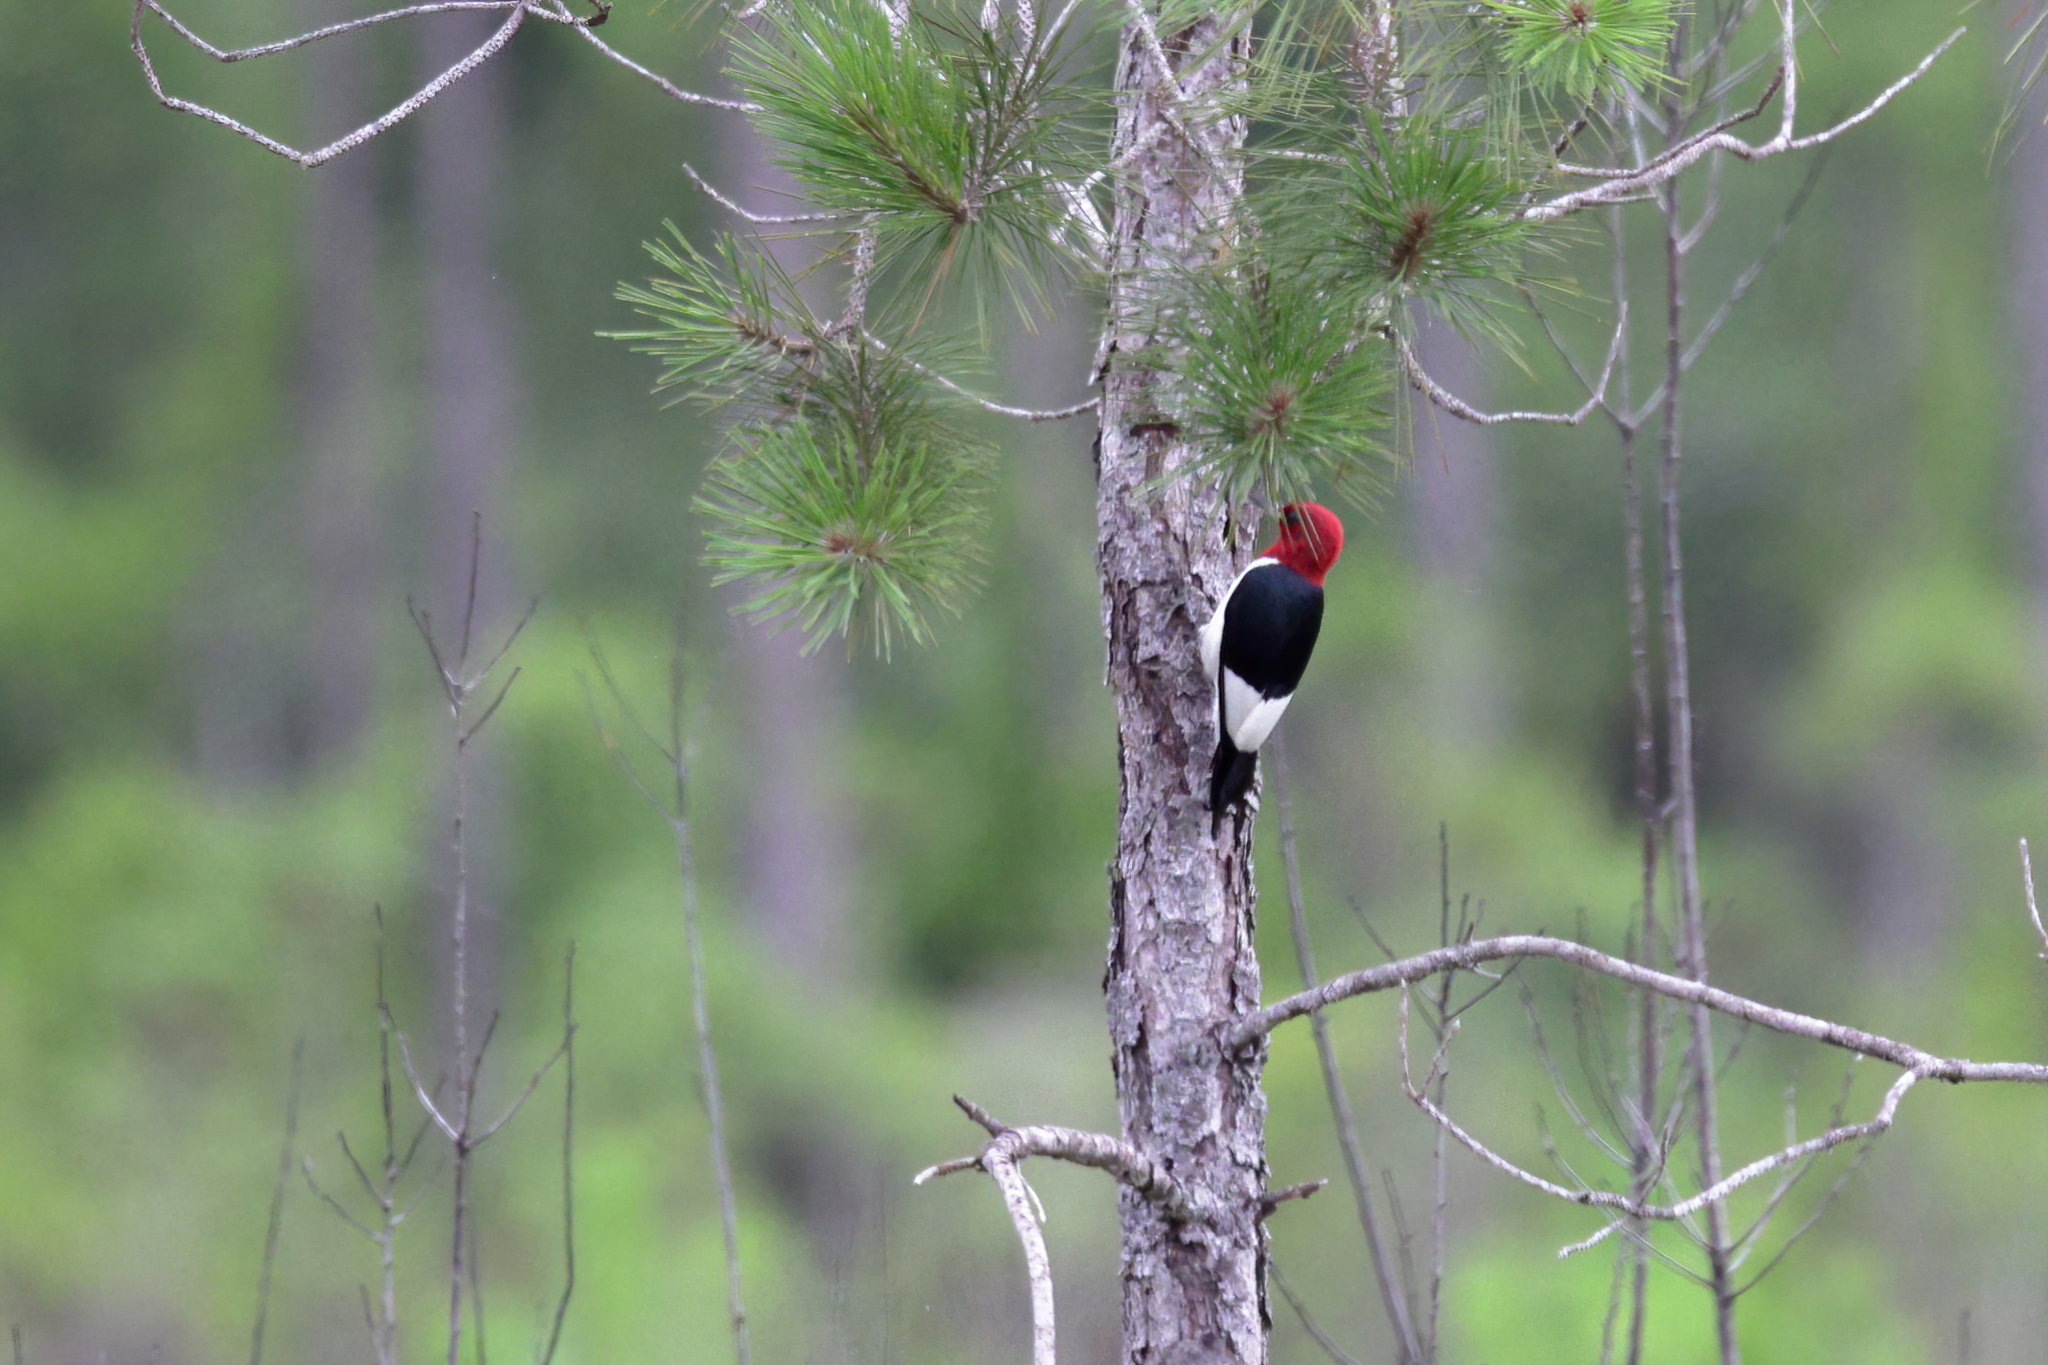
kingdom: Animalia
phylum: Chordata
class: Aves
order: Piciformes
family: Picidae
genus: Melanerpes
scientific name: Melanerpes erythrocephalus
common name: Red-headed woodpecker
